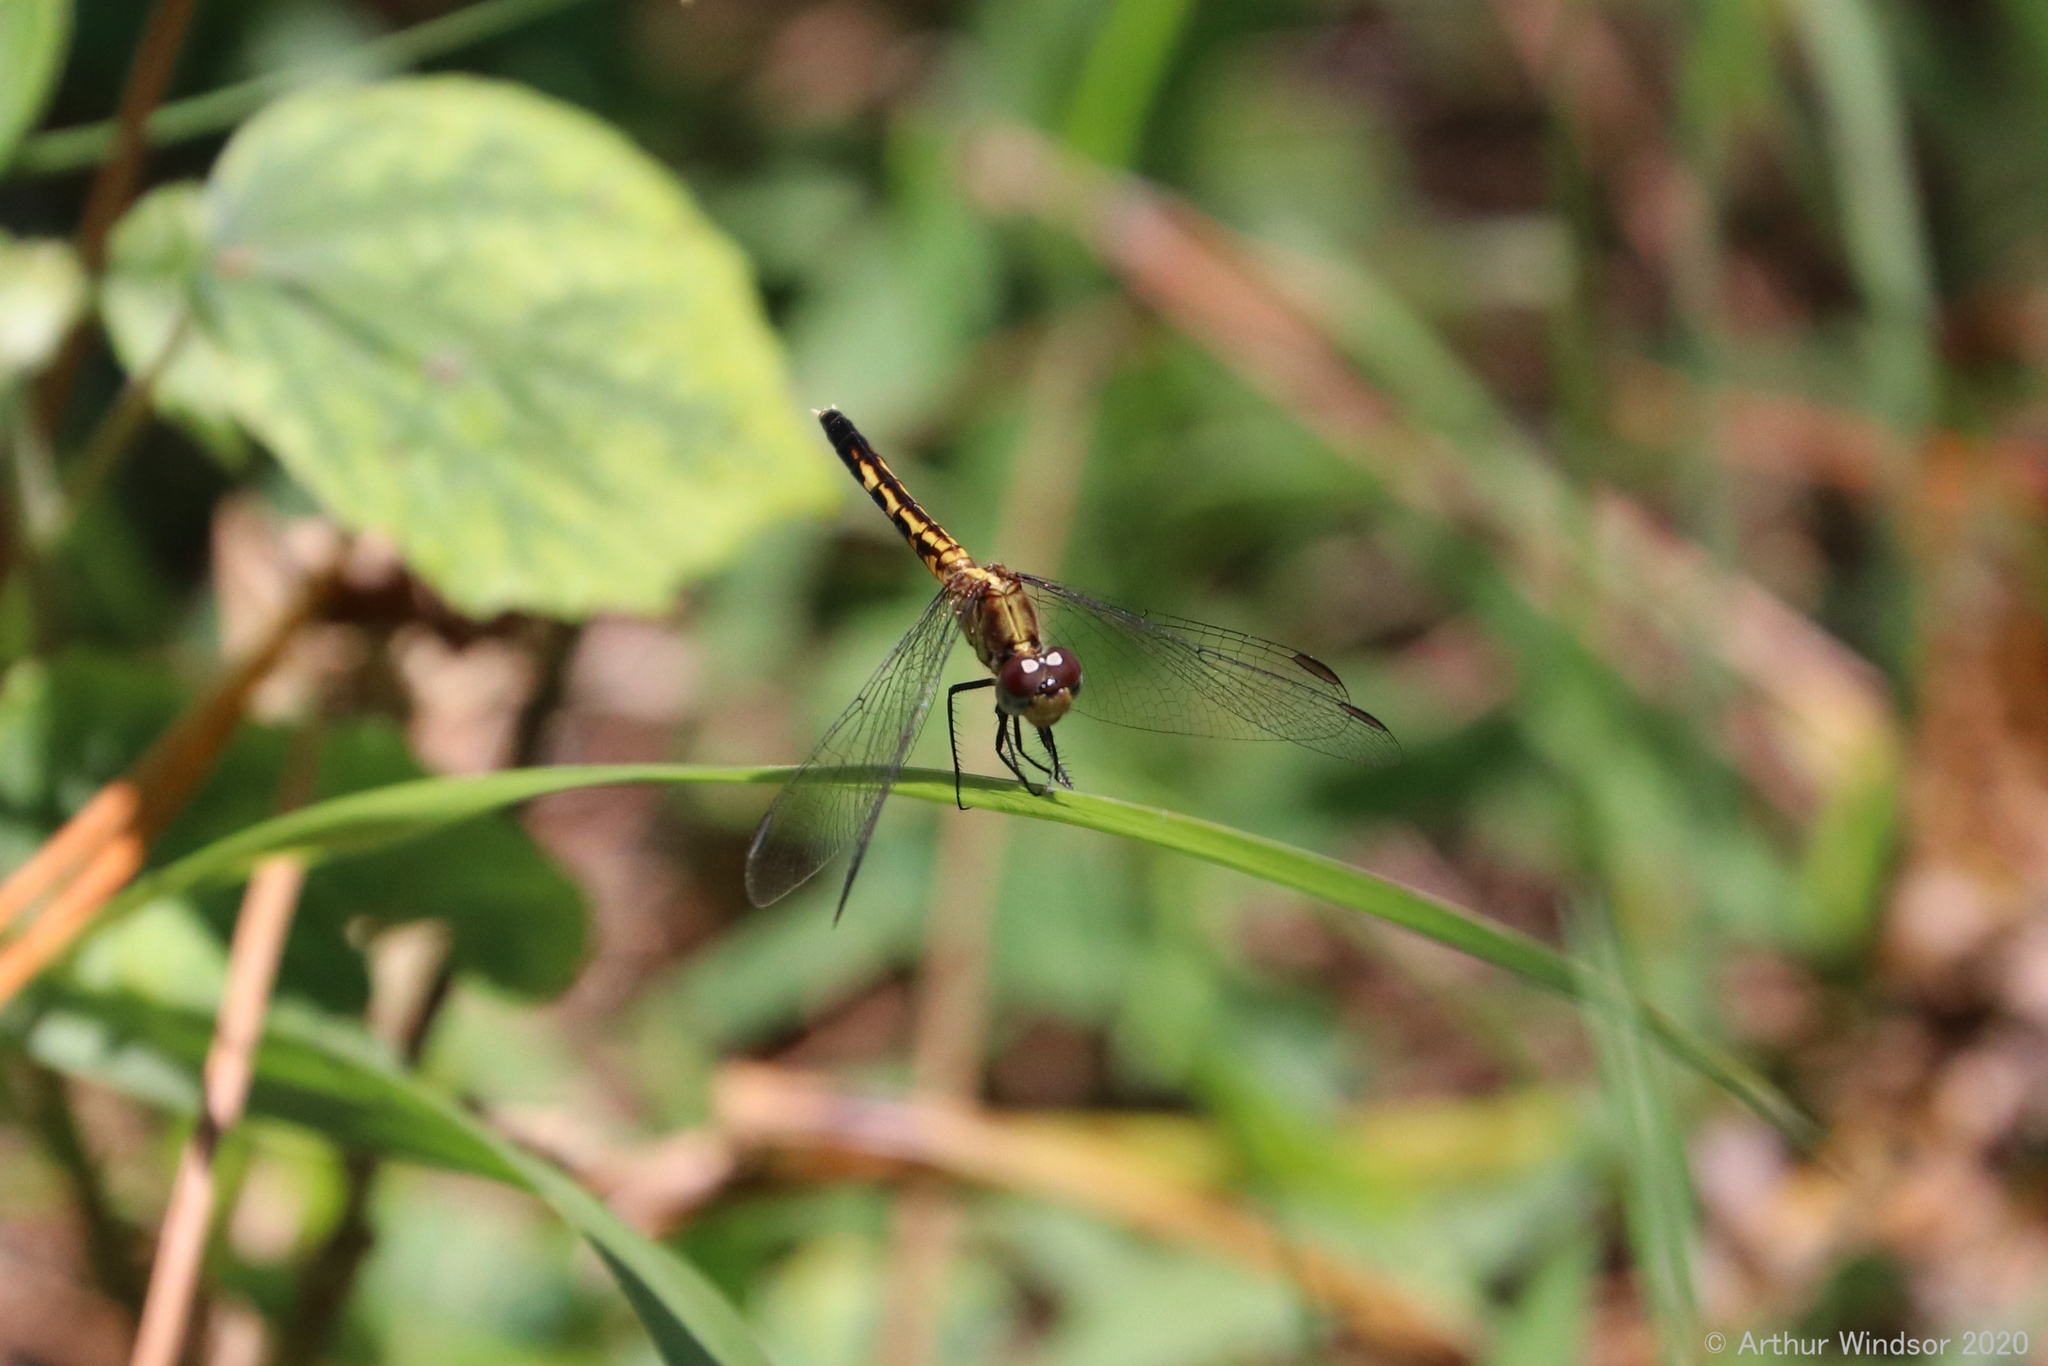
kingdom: Animalia
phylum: Arthropoda
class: Insecta
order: Odonata
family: Libellulidae
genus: Erythrodiplax
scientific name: Erythrodiplax minuscula
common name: Little blue dragonlet
